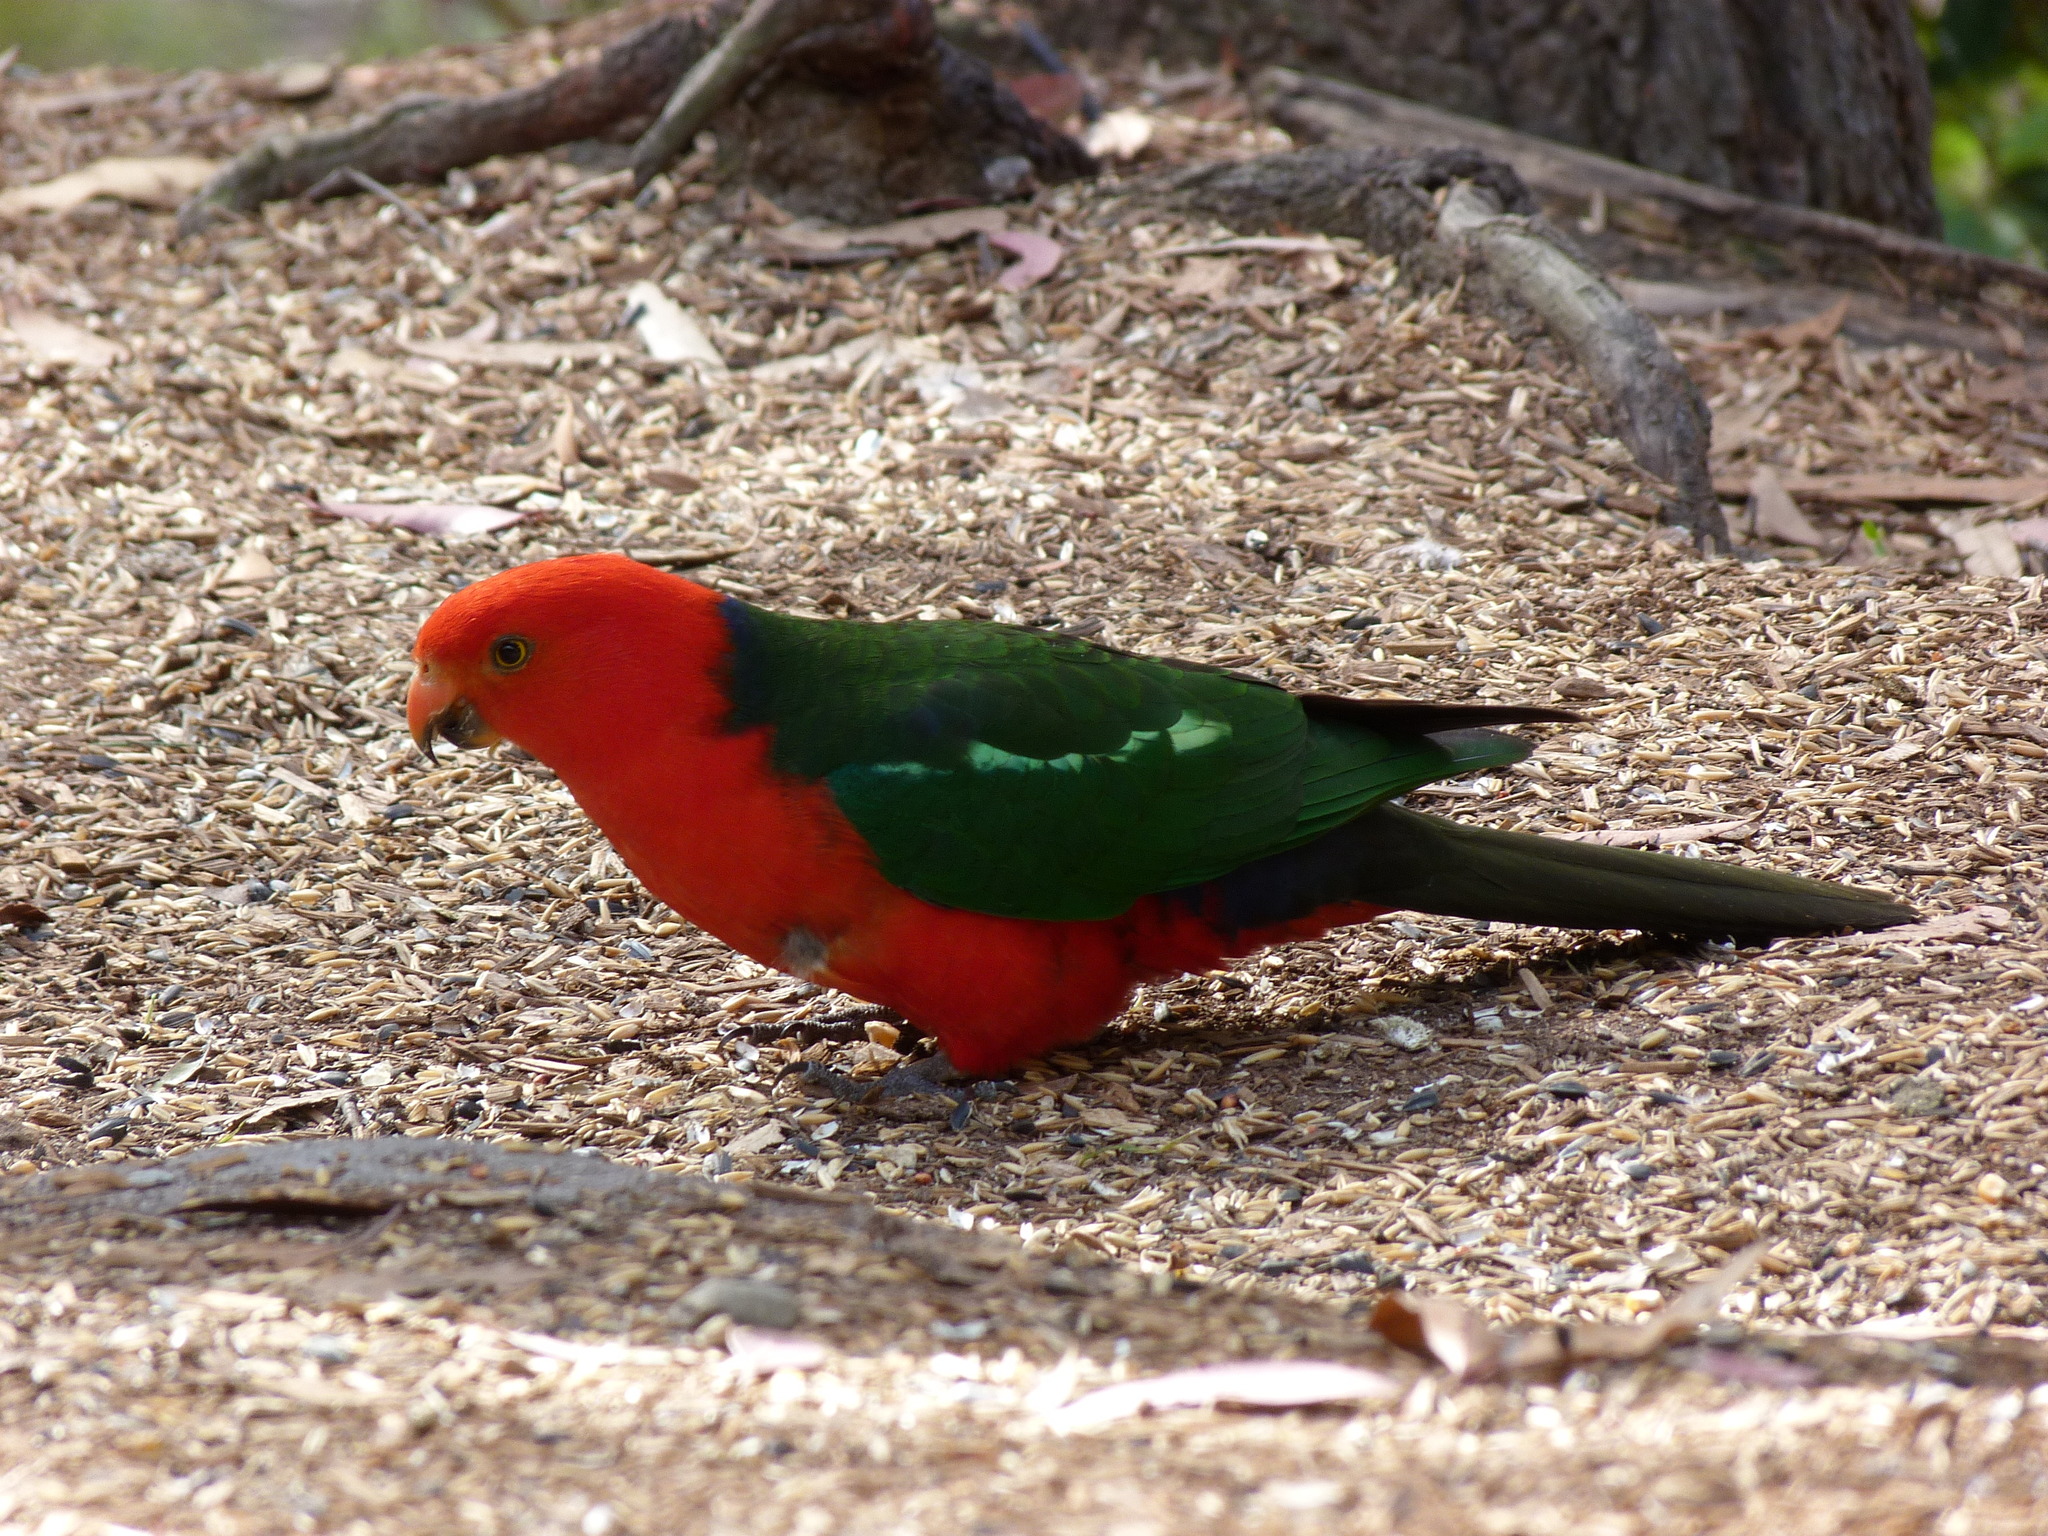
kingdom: Animalia
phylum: Chordata
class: Aves
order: Psittaciformes
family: Psittacidae
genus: Alisterus
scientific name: Alisterus scapularis
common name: Australian king parrot
